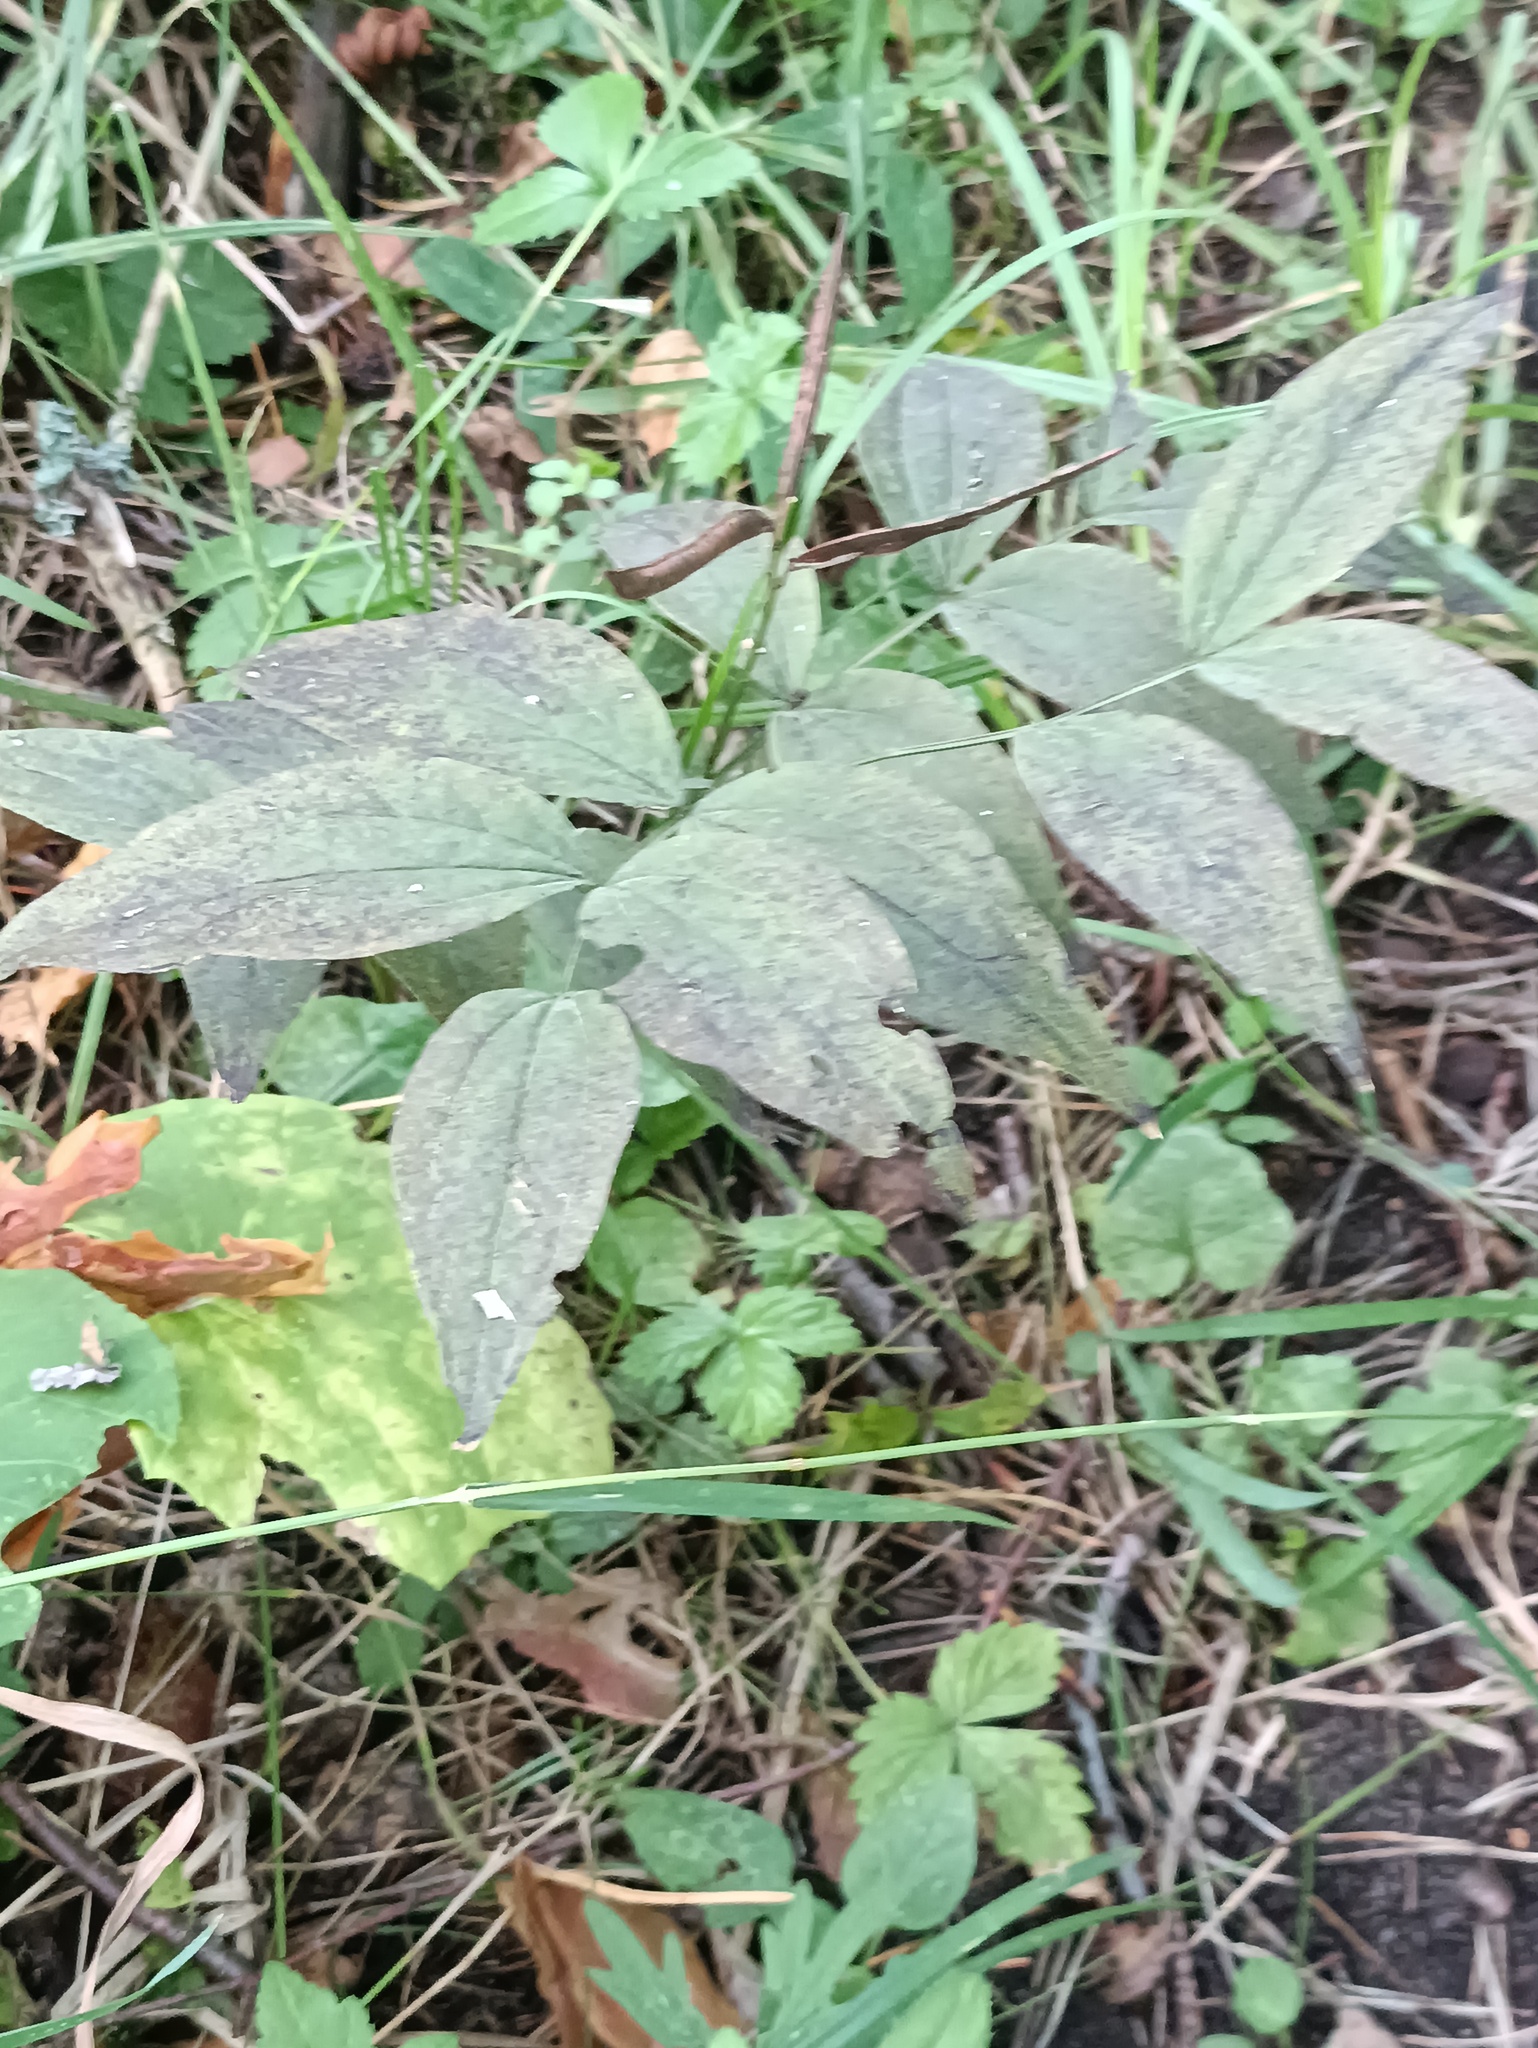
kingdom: Plantae
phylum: Tracheophyta
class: Magnoliopsida
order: Fabales
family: Fabaceae
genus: Lathyrus
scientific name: Lathyrus vernus
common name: Spring pea
